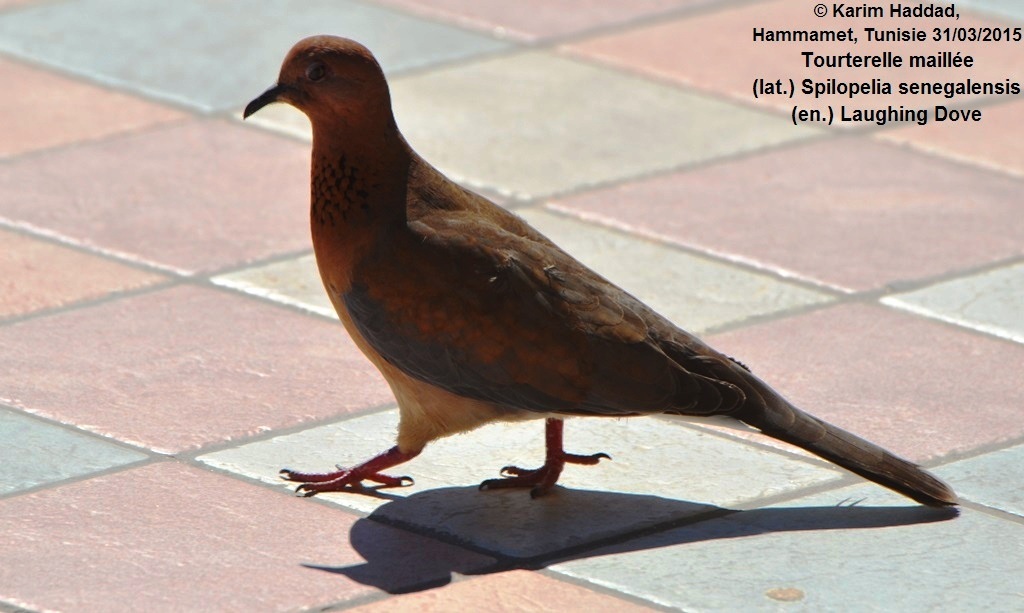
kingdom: Animalia
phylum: Chordata
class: Aves
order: Columbiformes
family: Columbidae
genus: Spilopelia
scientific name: Spilopelia senegalensis
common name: Laughing dove
